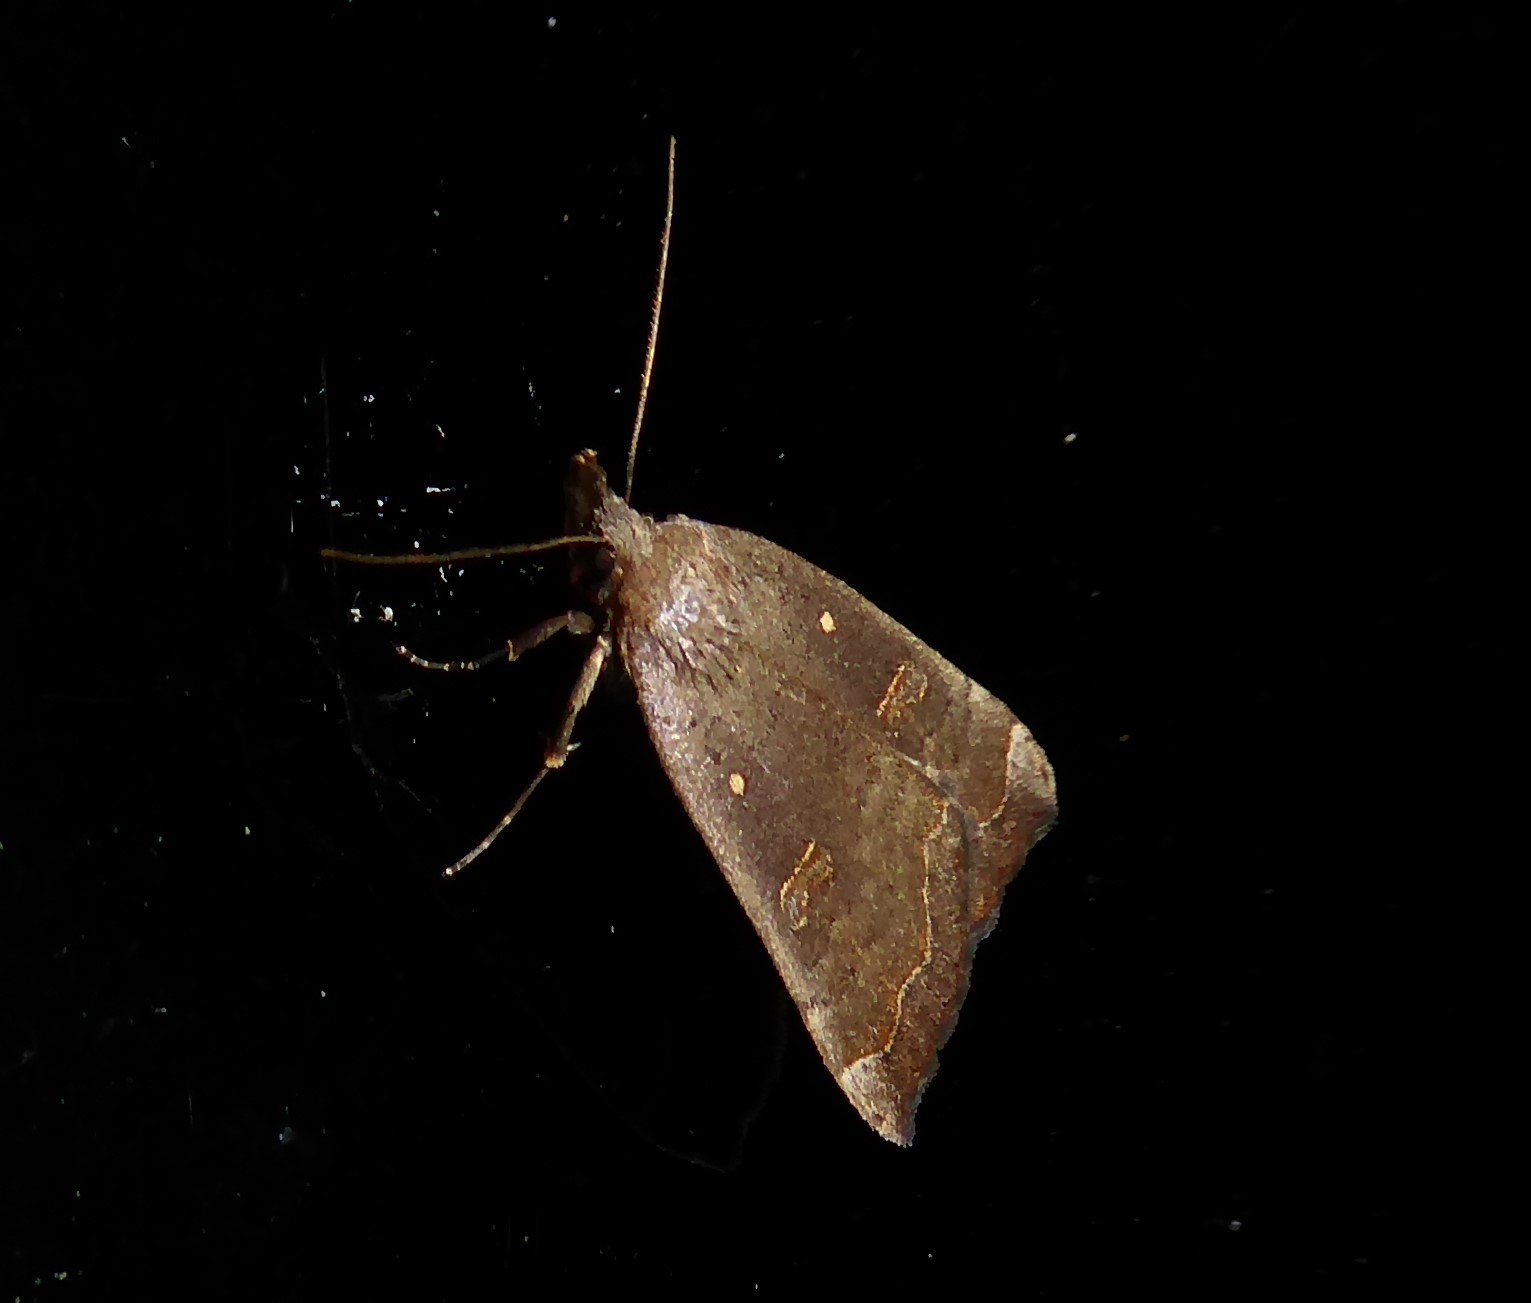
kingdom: Animalia
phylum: Arthropoda
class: Insecta
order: Lepidoptera
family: Erebidae
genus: Rhapsa
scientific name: Rhapsa scotosialis
